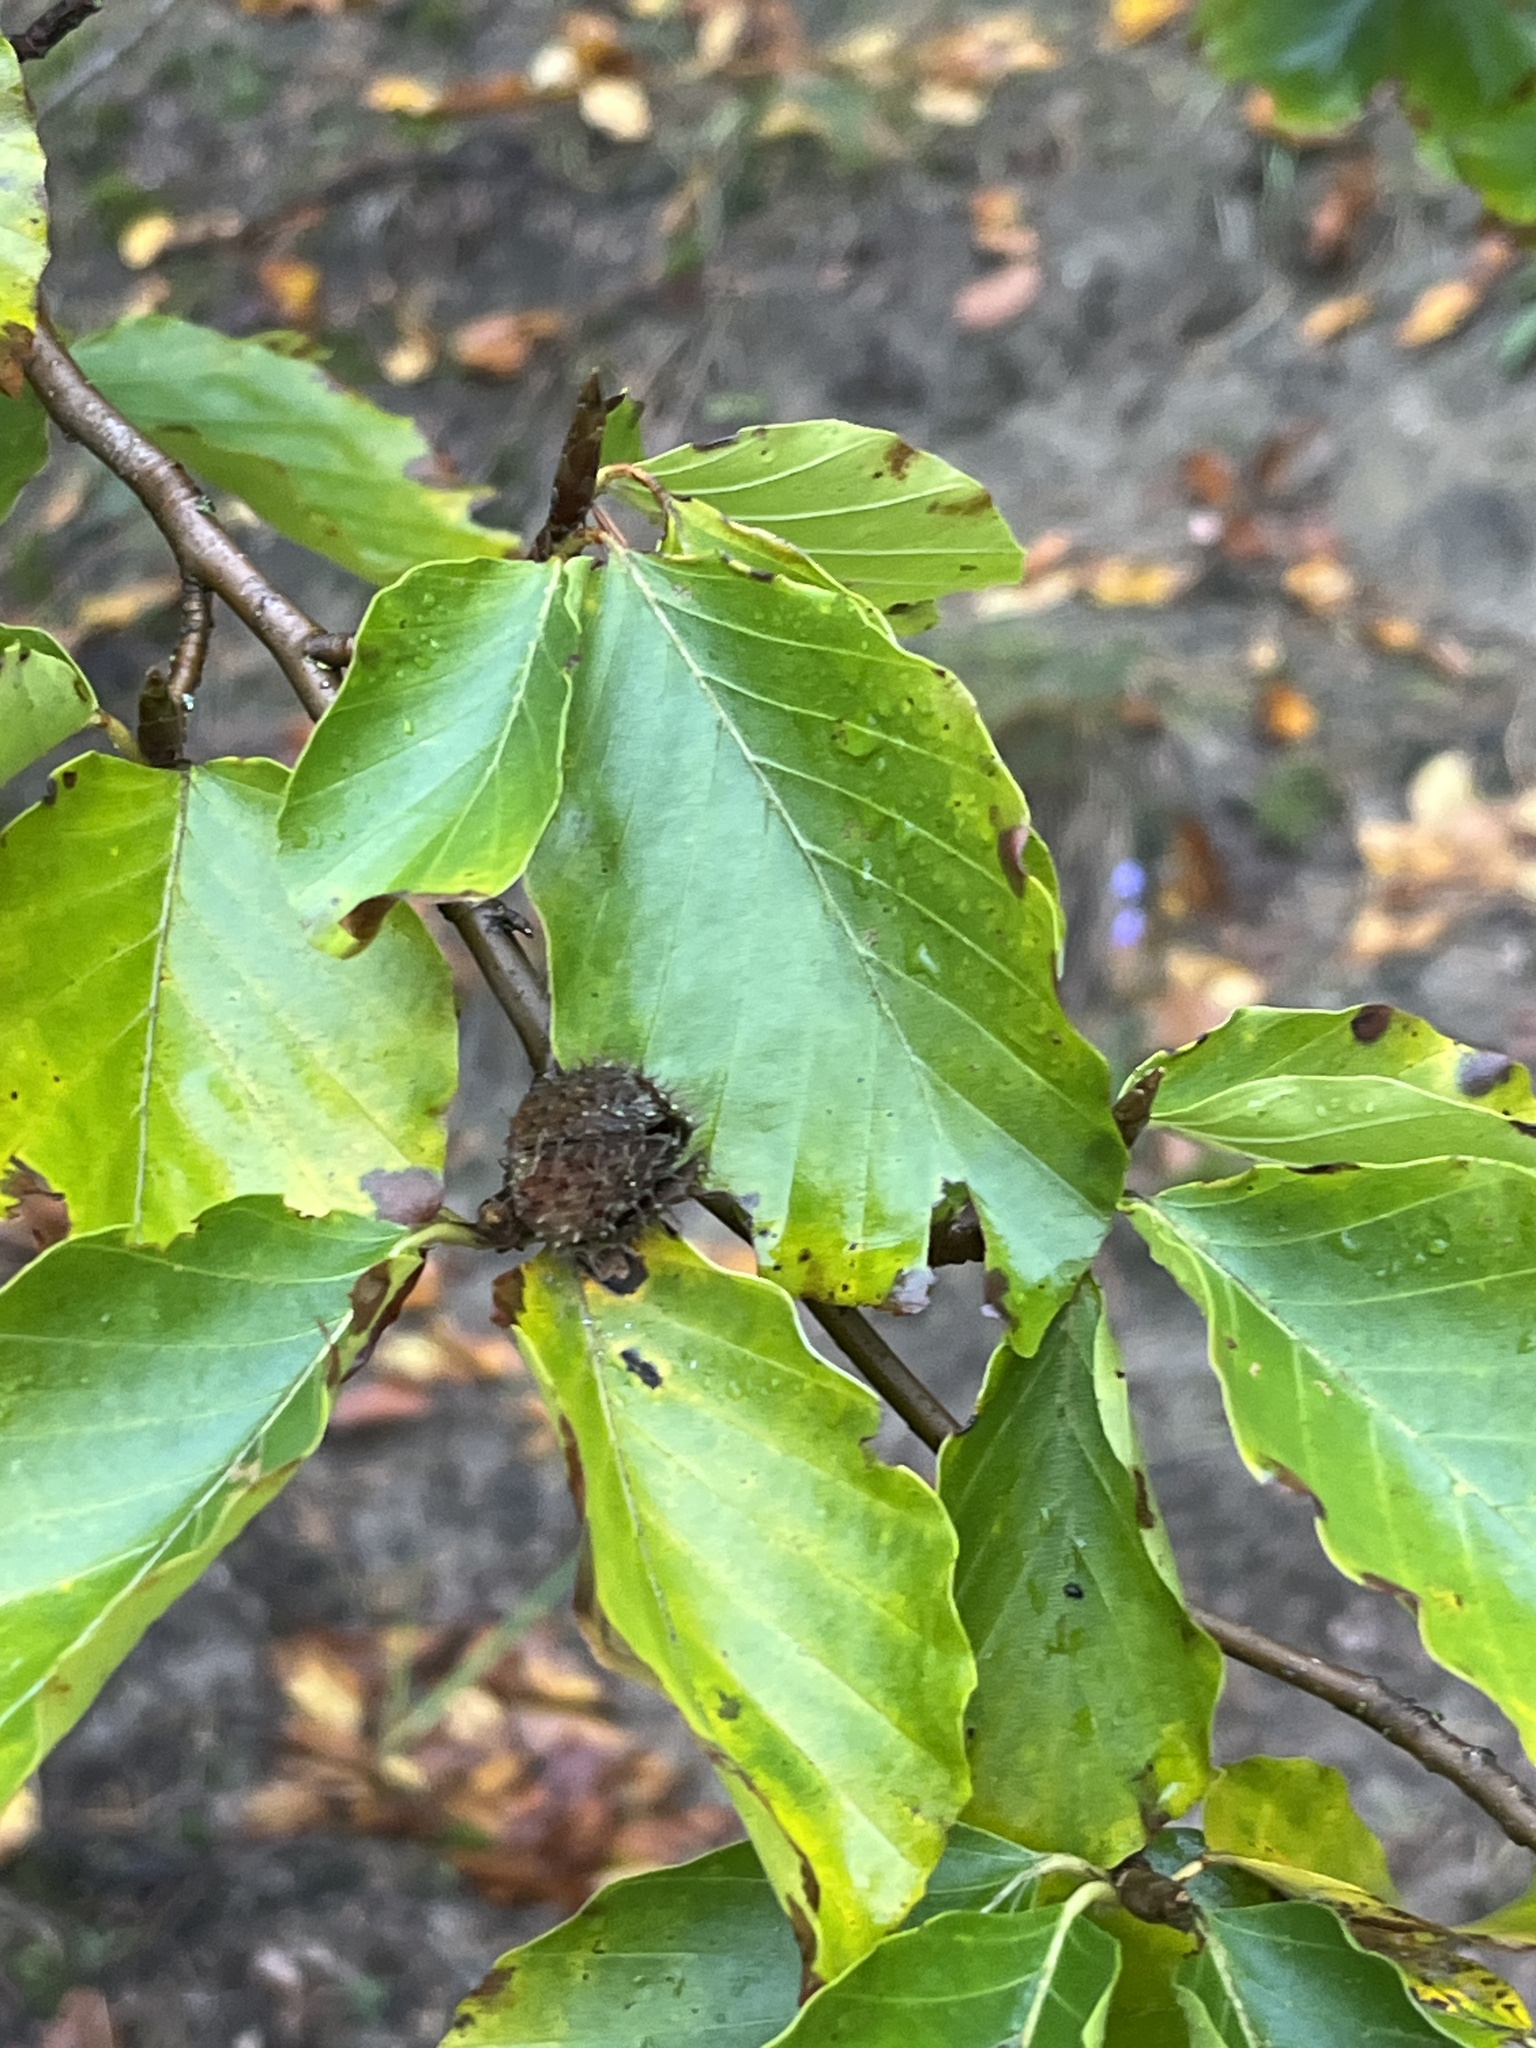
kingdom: Plantae
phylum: Tracheophyta
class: Magnoliopsida
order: Fagales
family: Fagaceae
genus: Fagus
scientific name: Fagus sylvatica
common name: Beech
